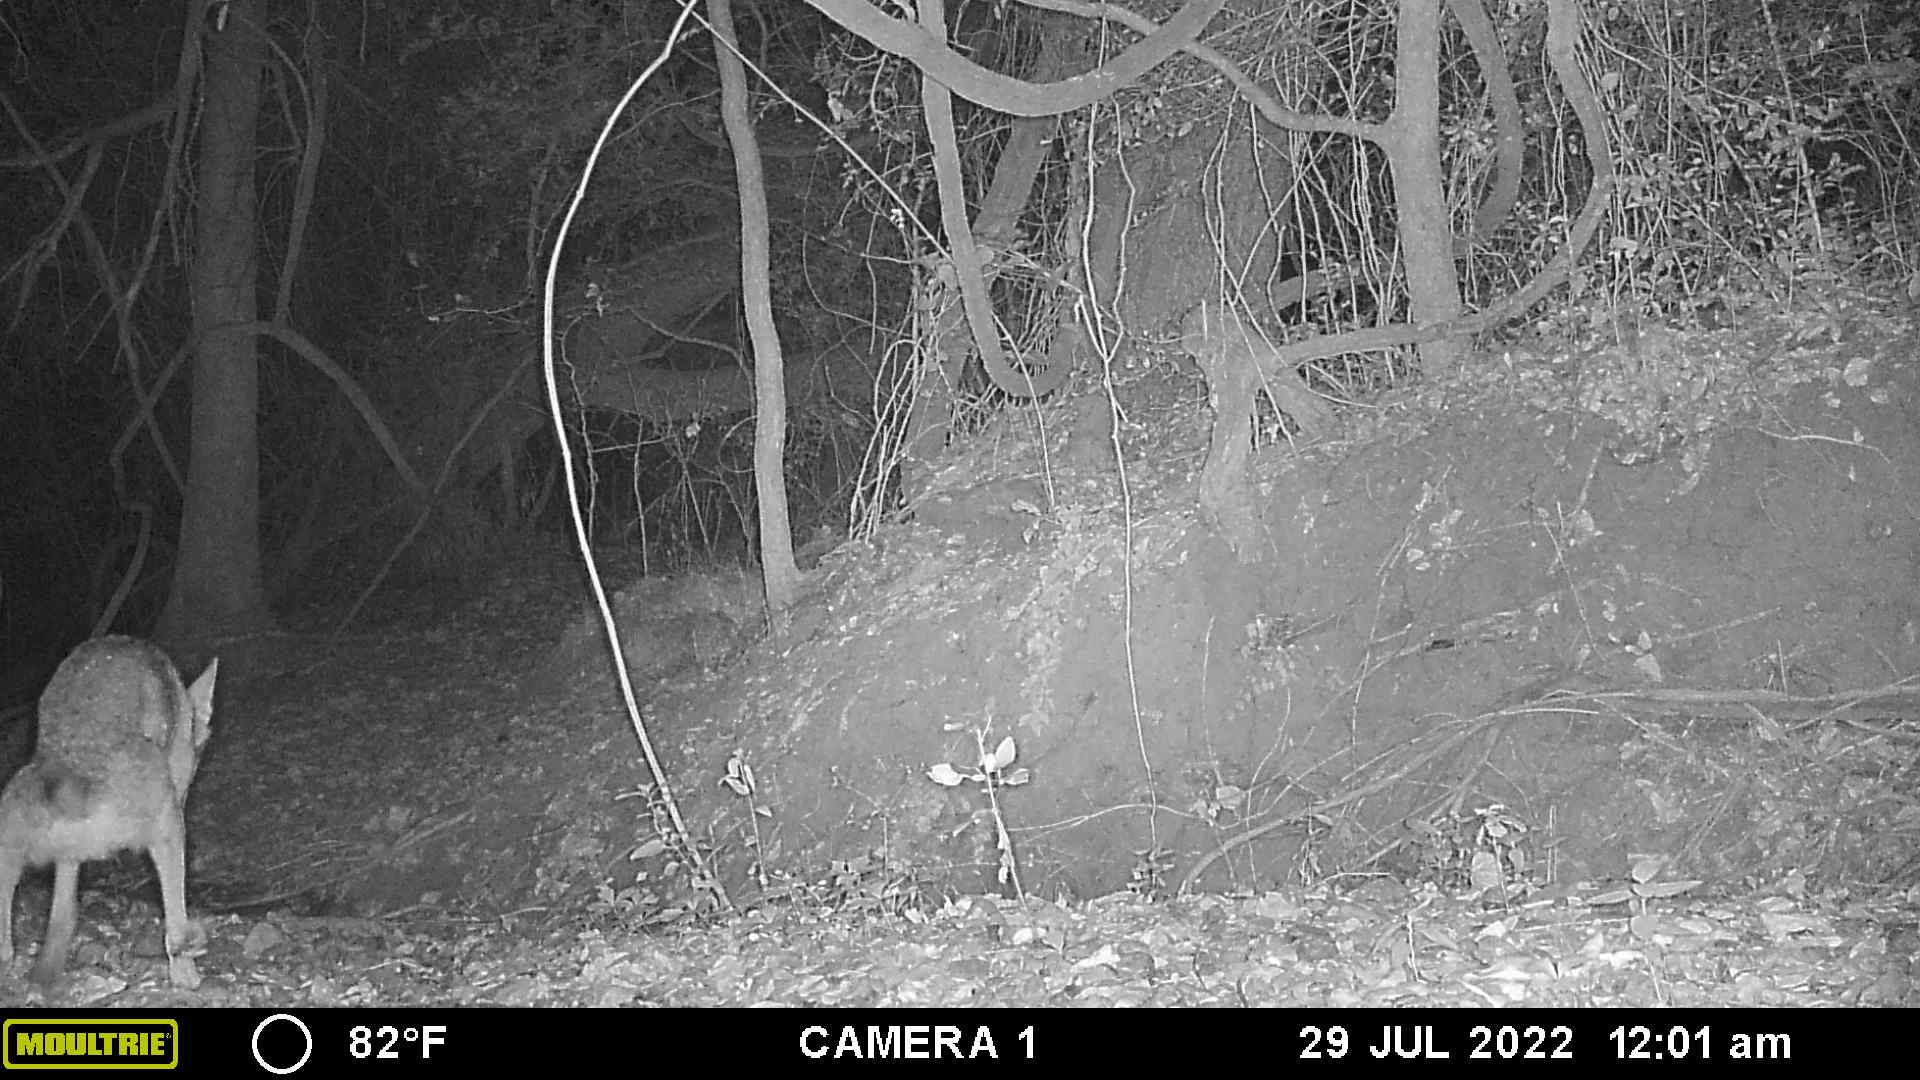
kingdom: Animalia
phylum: Chordata
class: Mammalia
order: Carnivora
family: Canidae
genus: Canis
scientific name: Canis latrans
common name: Coyote
